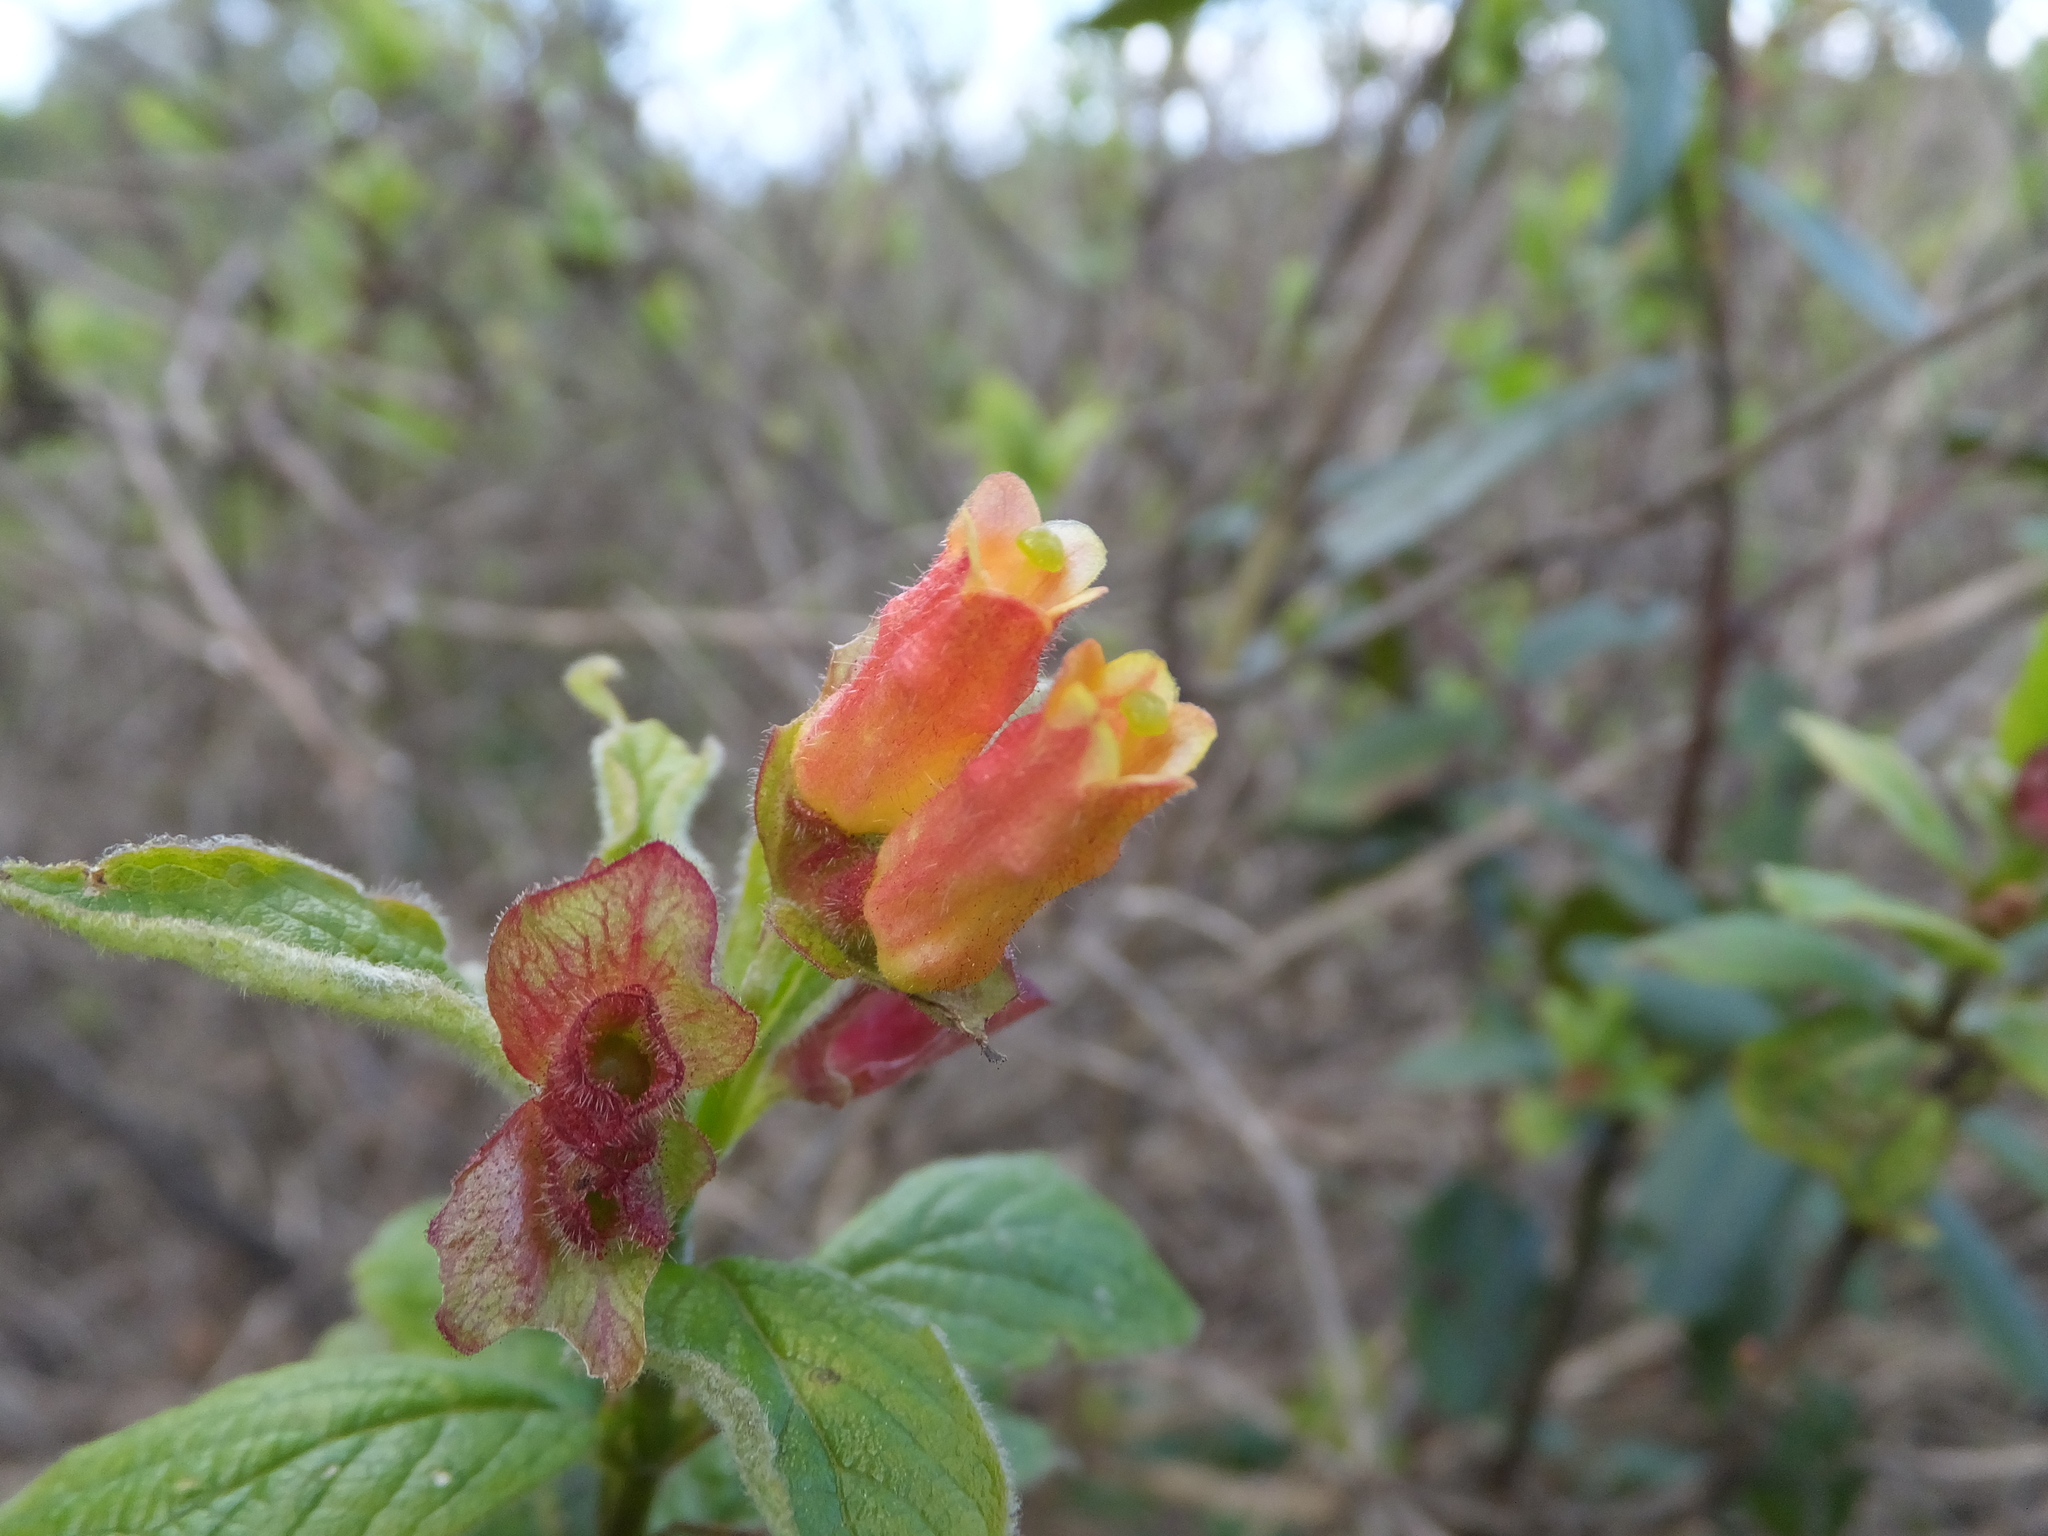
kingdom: Plantae
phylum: Tracheophyta
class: Magnoliopsida
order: Dipsacales
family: Caprifoliaceae
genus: Lonicera
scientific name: Lonicera involucrata
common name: Californian honeysuckle
